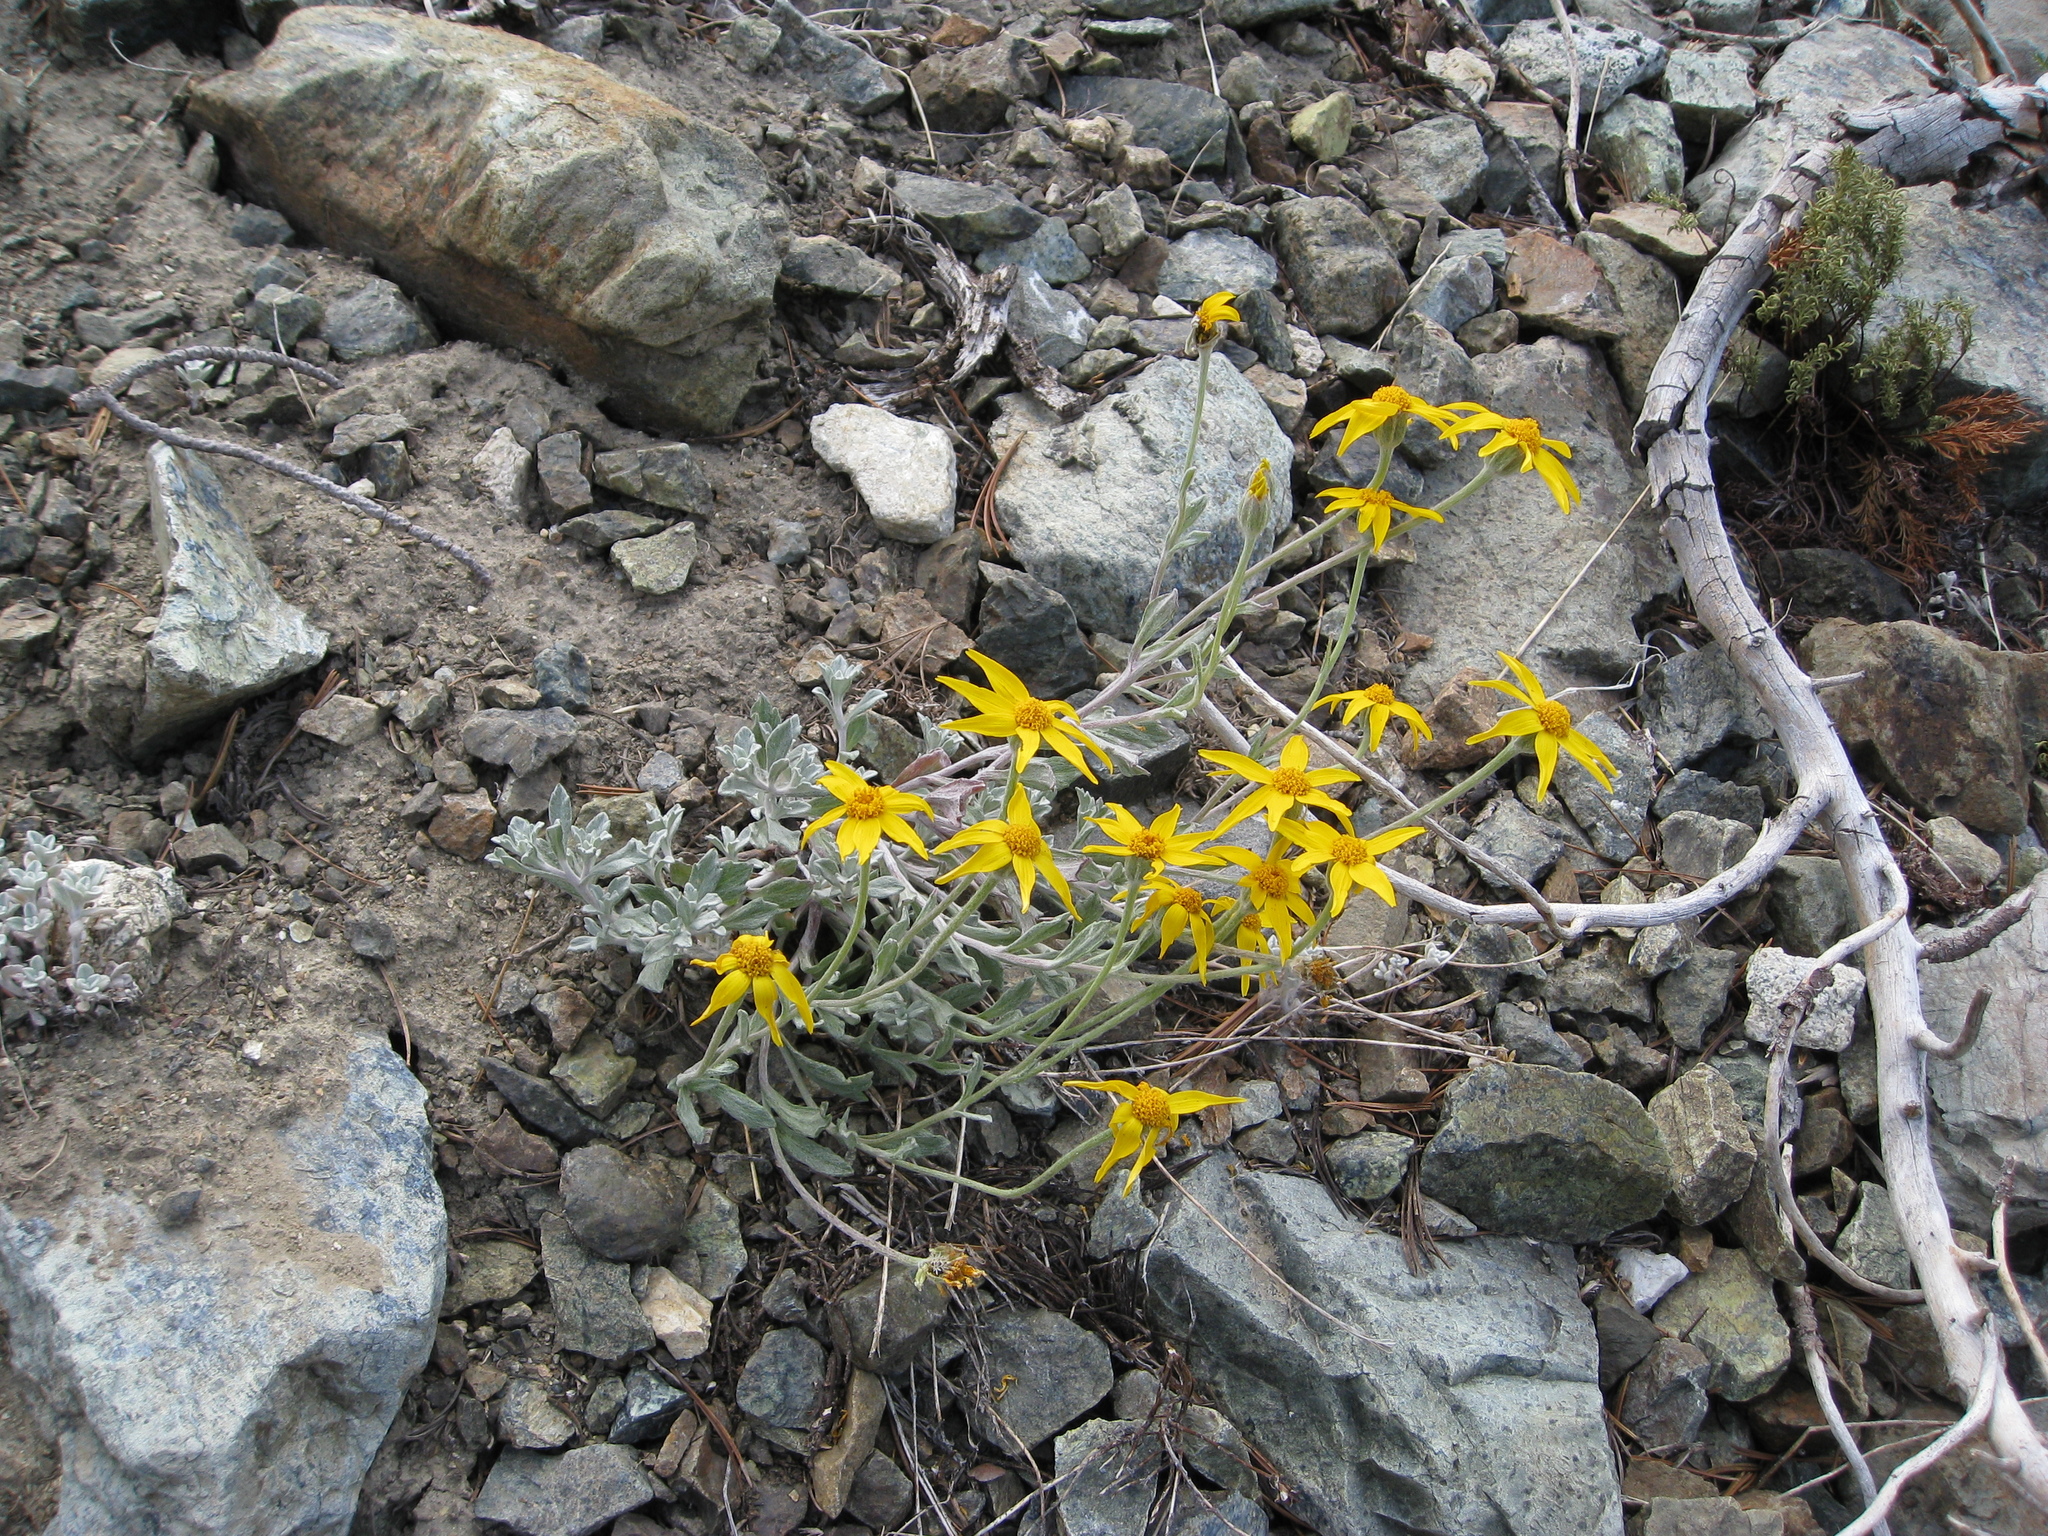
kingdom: Plantae
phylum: Tracheophyta
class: Magnoliopsida
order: Asterales
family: Asteraceae
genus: Eriophyllum
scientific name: Eriophyllum lanatum
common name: Common woolly-sunflower
